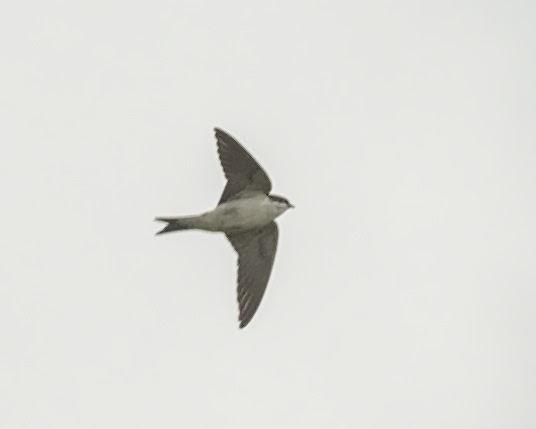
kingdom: Animalia
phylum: Chordata
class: Aves
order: Passeriformes
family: Hirundinidae
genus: Delichon
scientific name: Delichon urbicum
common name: Common house martin
